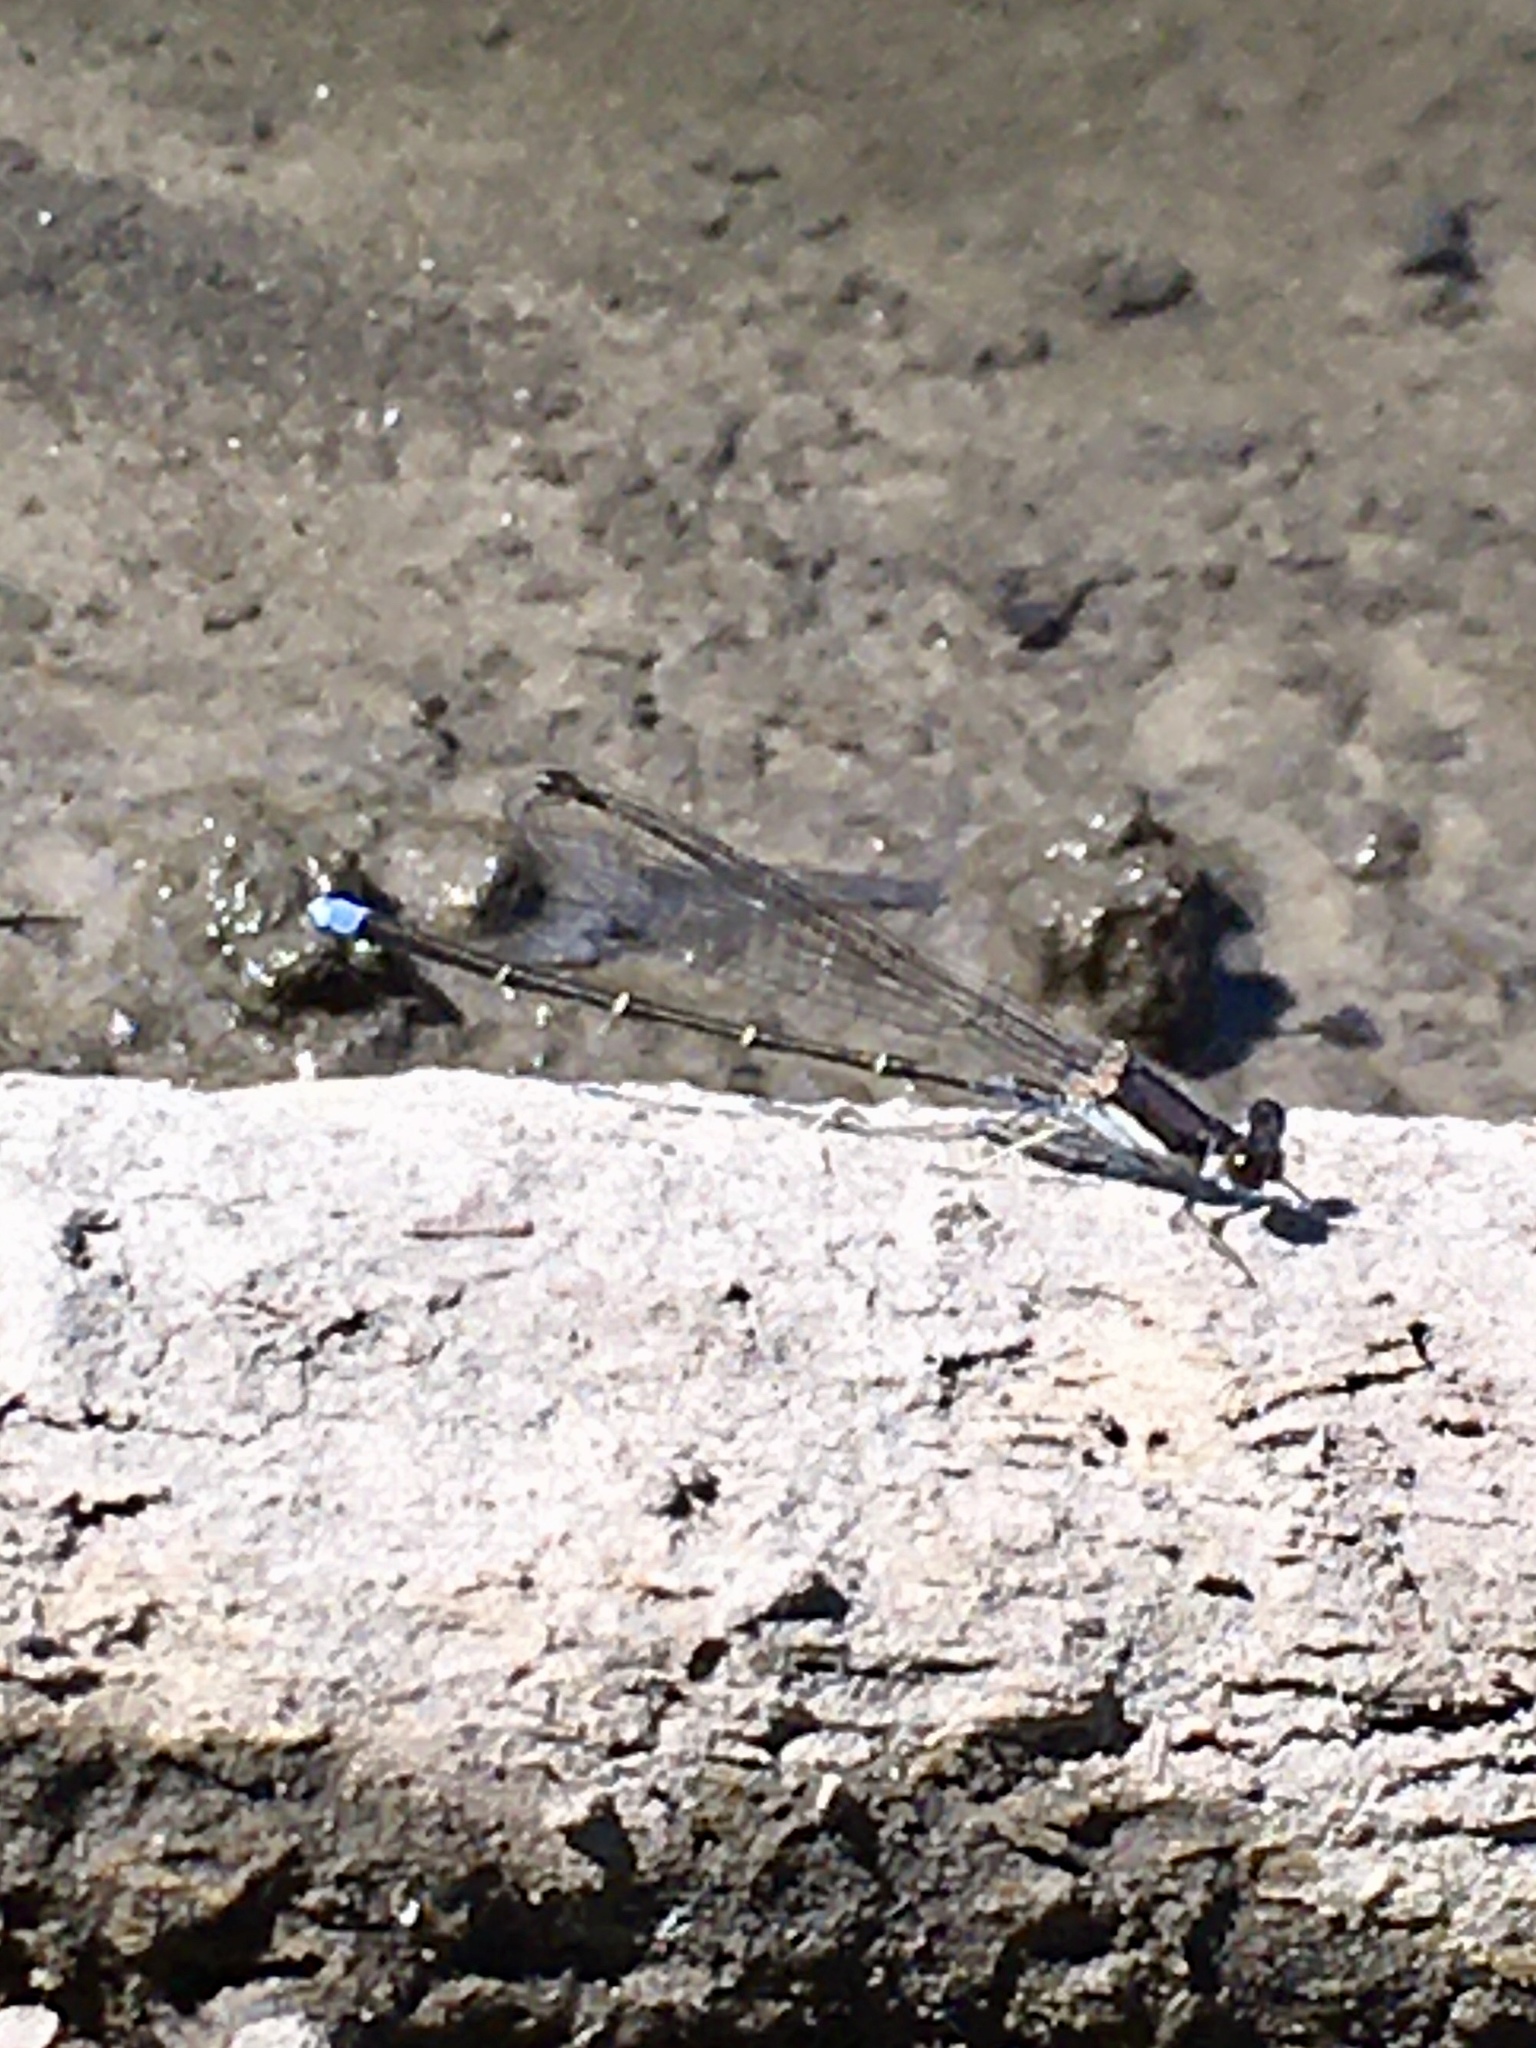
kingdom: Animalia
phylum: Arthropoda
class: Insecta
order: Odonata
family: Coenagrionidae
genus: Argia
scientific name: Argia tibialis
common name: Blue-tipped dancer
